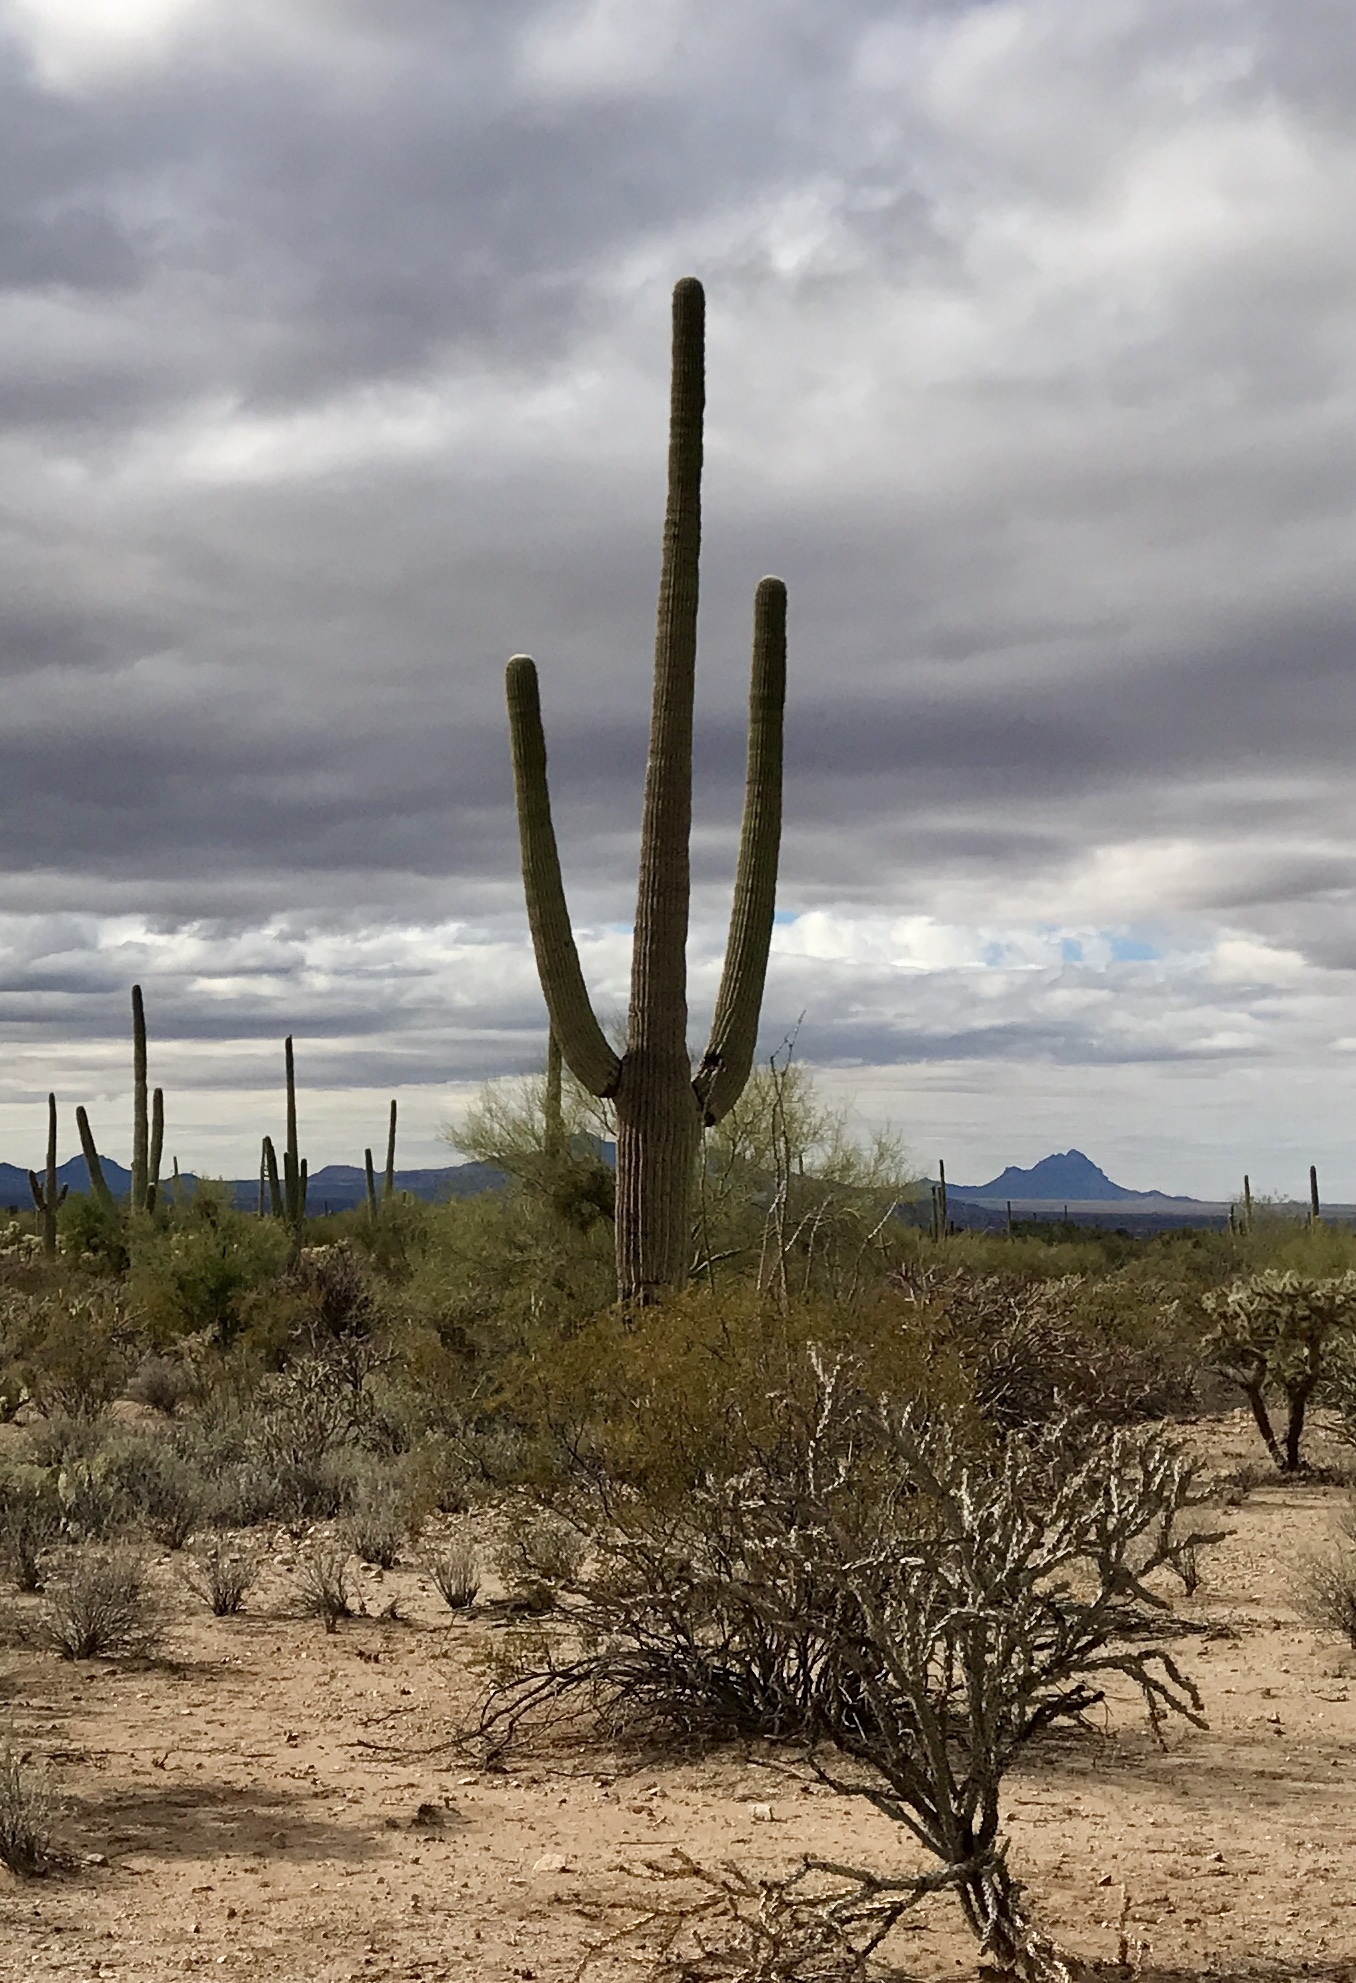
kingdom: Plantae
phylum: Tracheophyta
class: Magnoliopsida
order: Caryophyllales
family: Cactaceae
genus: Carnegiea
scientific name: Carnegiea gigantea
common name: Saguaro
